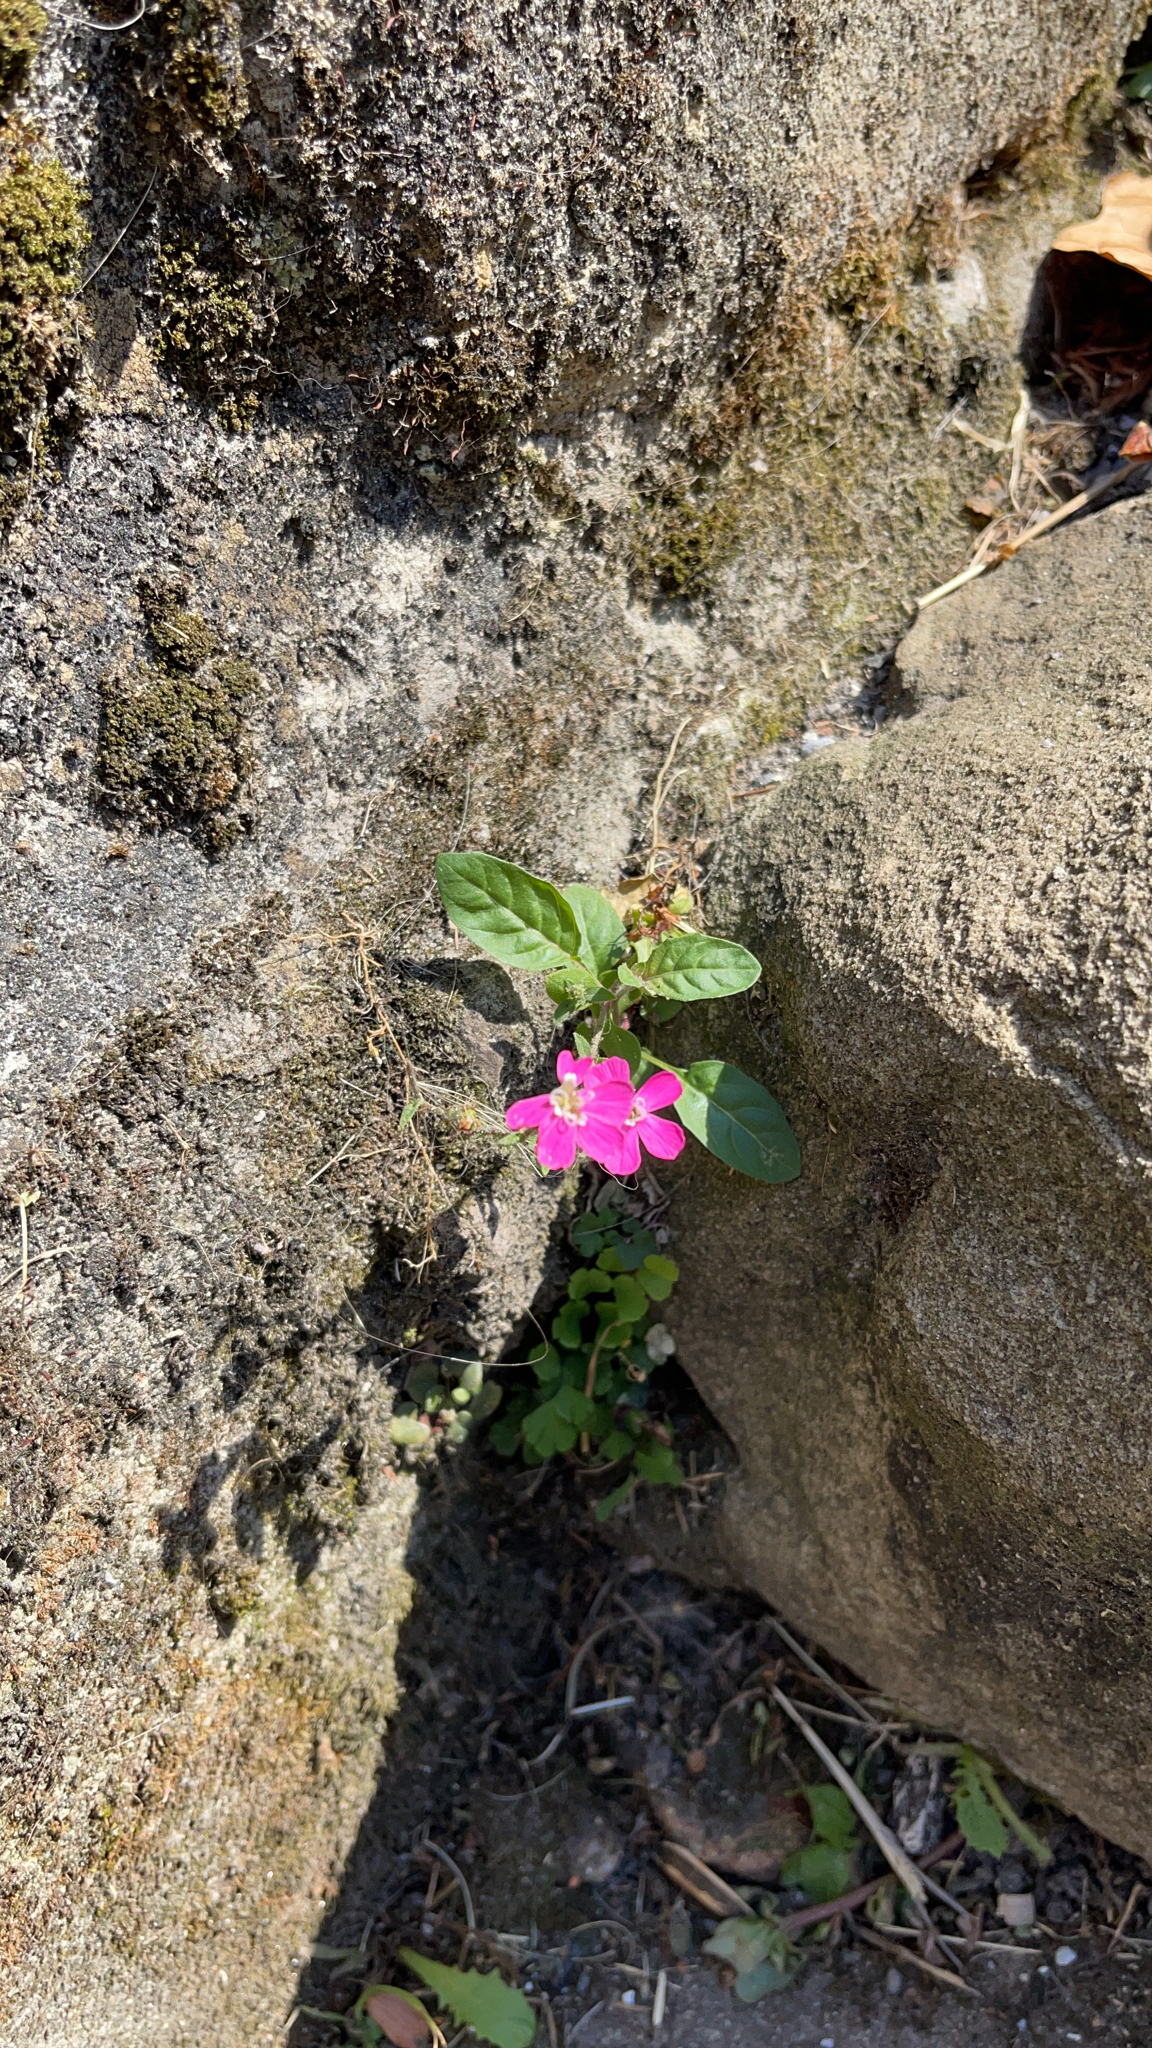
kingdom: Plantae
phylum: Tracheophyta
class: Magnoliopsida
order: Myrtales
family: Onagraceae
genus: Oenothera
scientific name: Oenothera rosea
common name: Rosy evening-primrose
